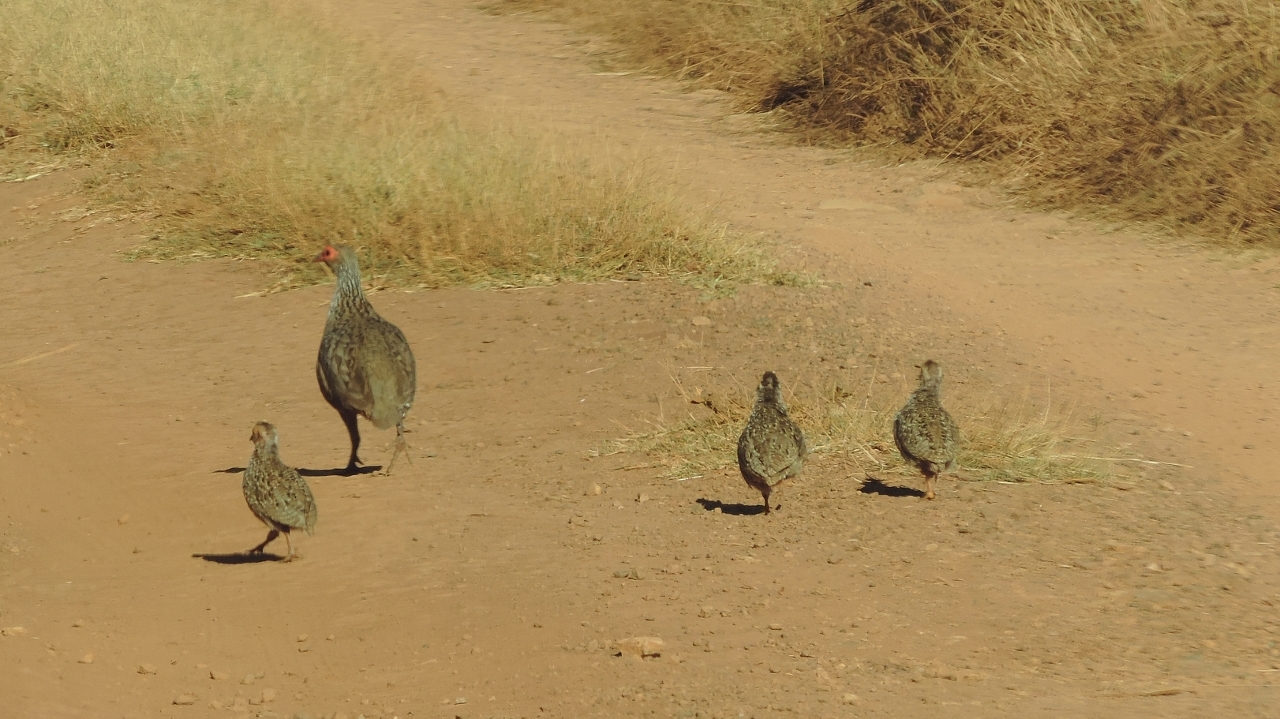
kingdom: Animalia
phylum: Chordata
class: Aves
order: Galliformes
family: Phasianidae
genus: Pternistis
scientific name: Pternistis swainsonii
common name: Swainson's spurfowl
